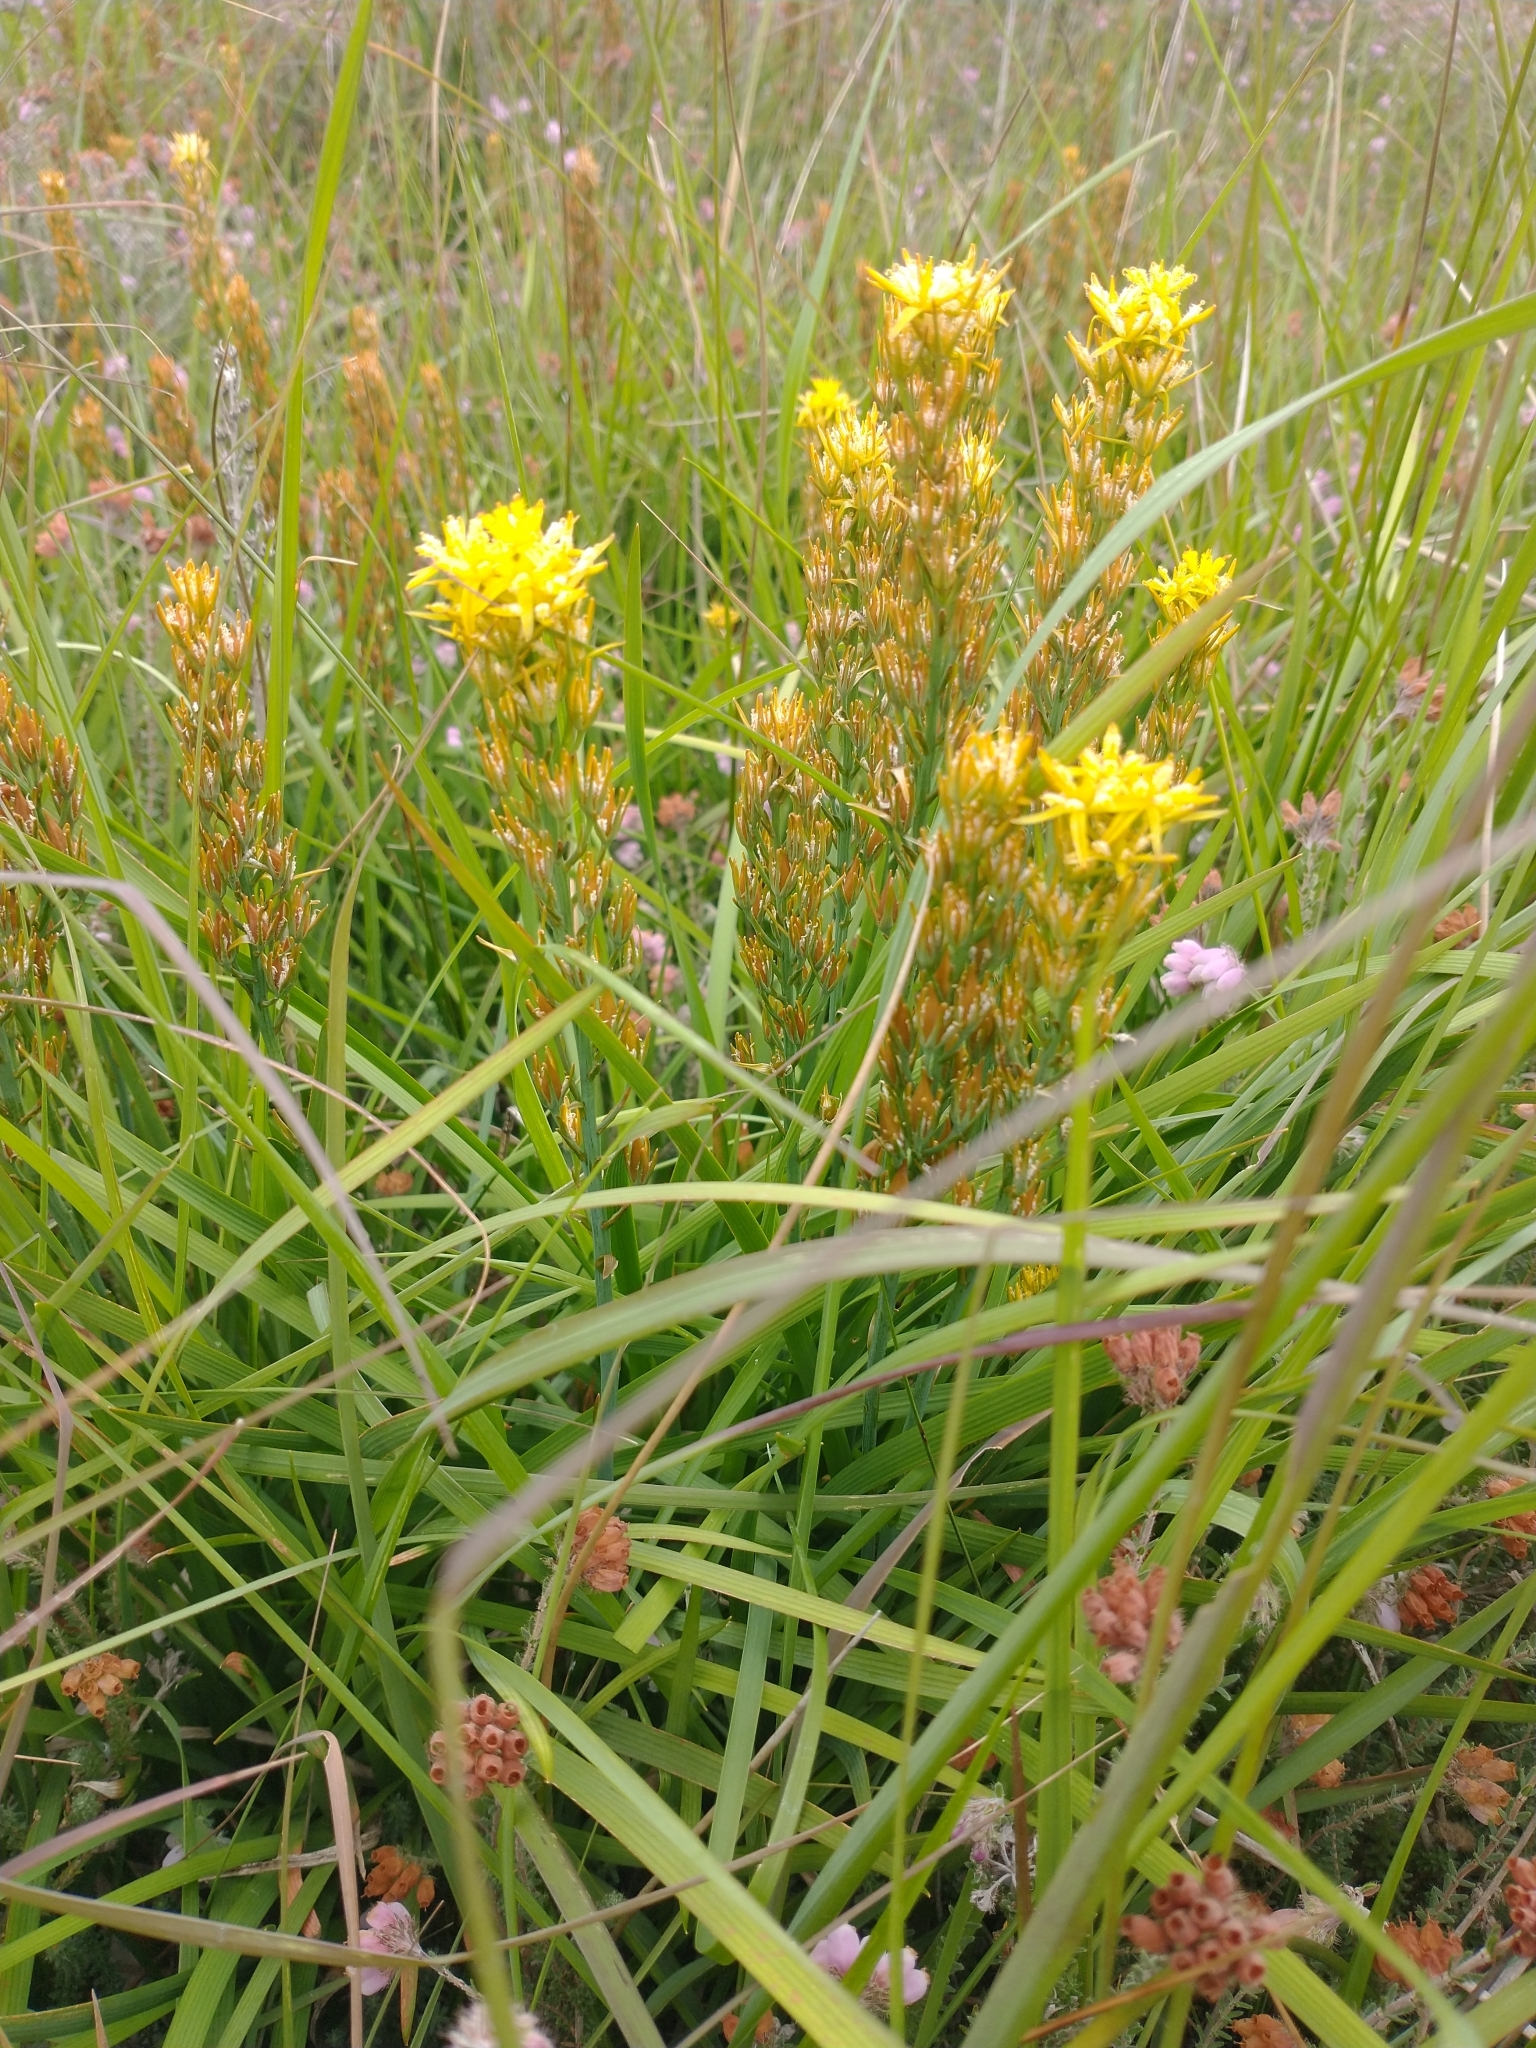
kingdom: Plantae
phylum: Tracheophyta
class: Liliopsida
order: Dioscoreales
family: Nartheciaceae
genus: Narthecium
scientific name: Narthecium ossifragum
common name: Bog asphodel
